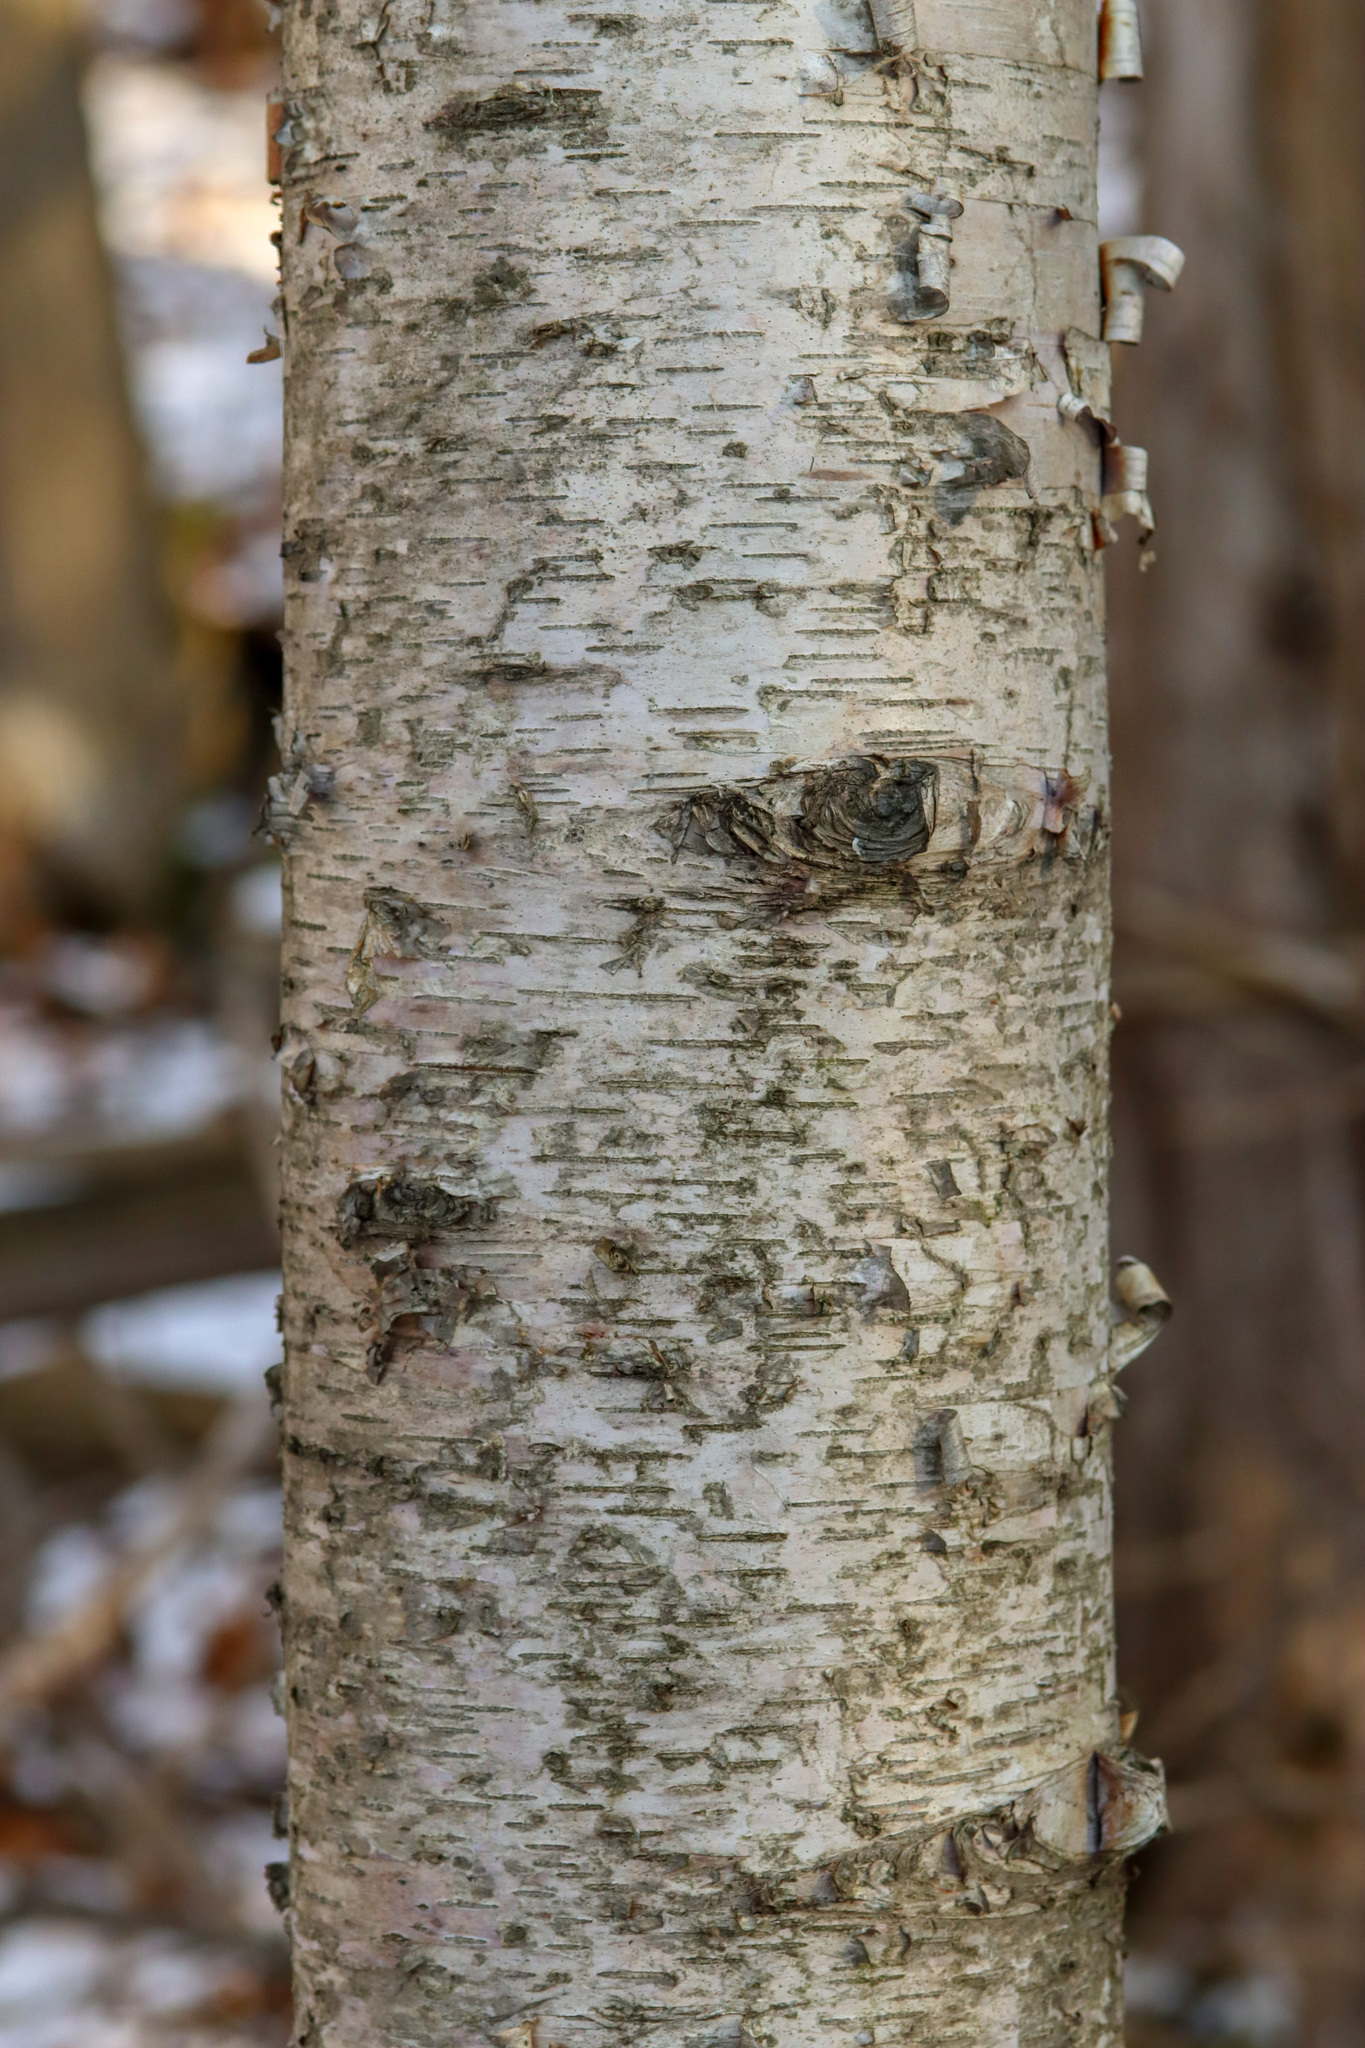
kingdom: Plantae
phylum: Tracheophyta
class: Magnoliopsida
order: Fagales
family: Betulaceae
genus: Betula
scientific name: Betula papyrifera
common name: Paper birch
